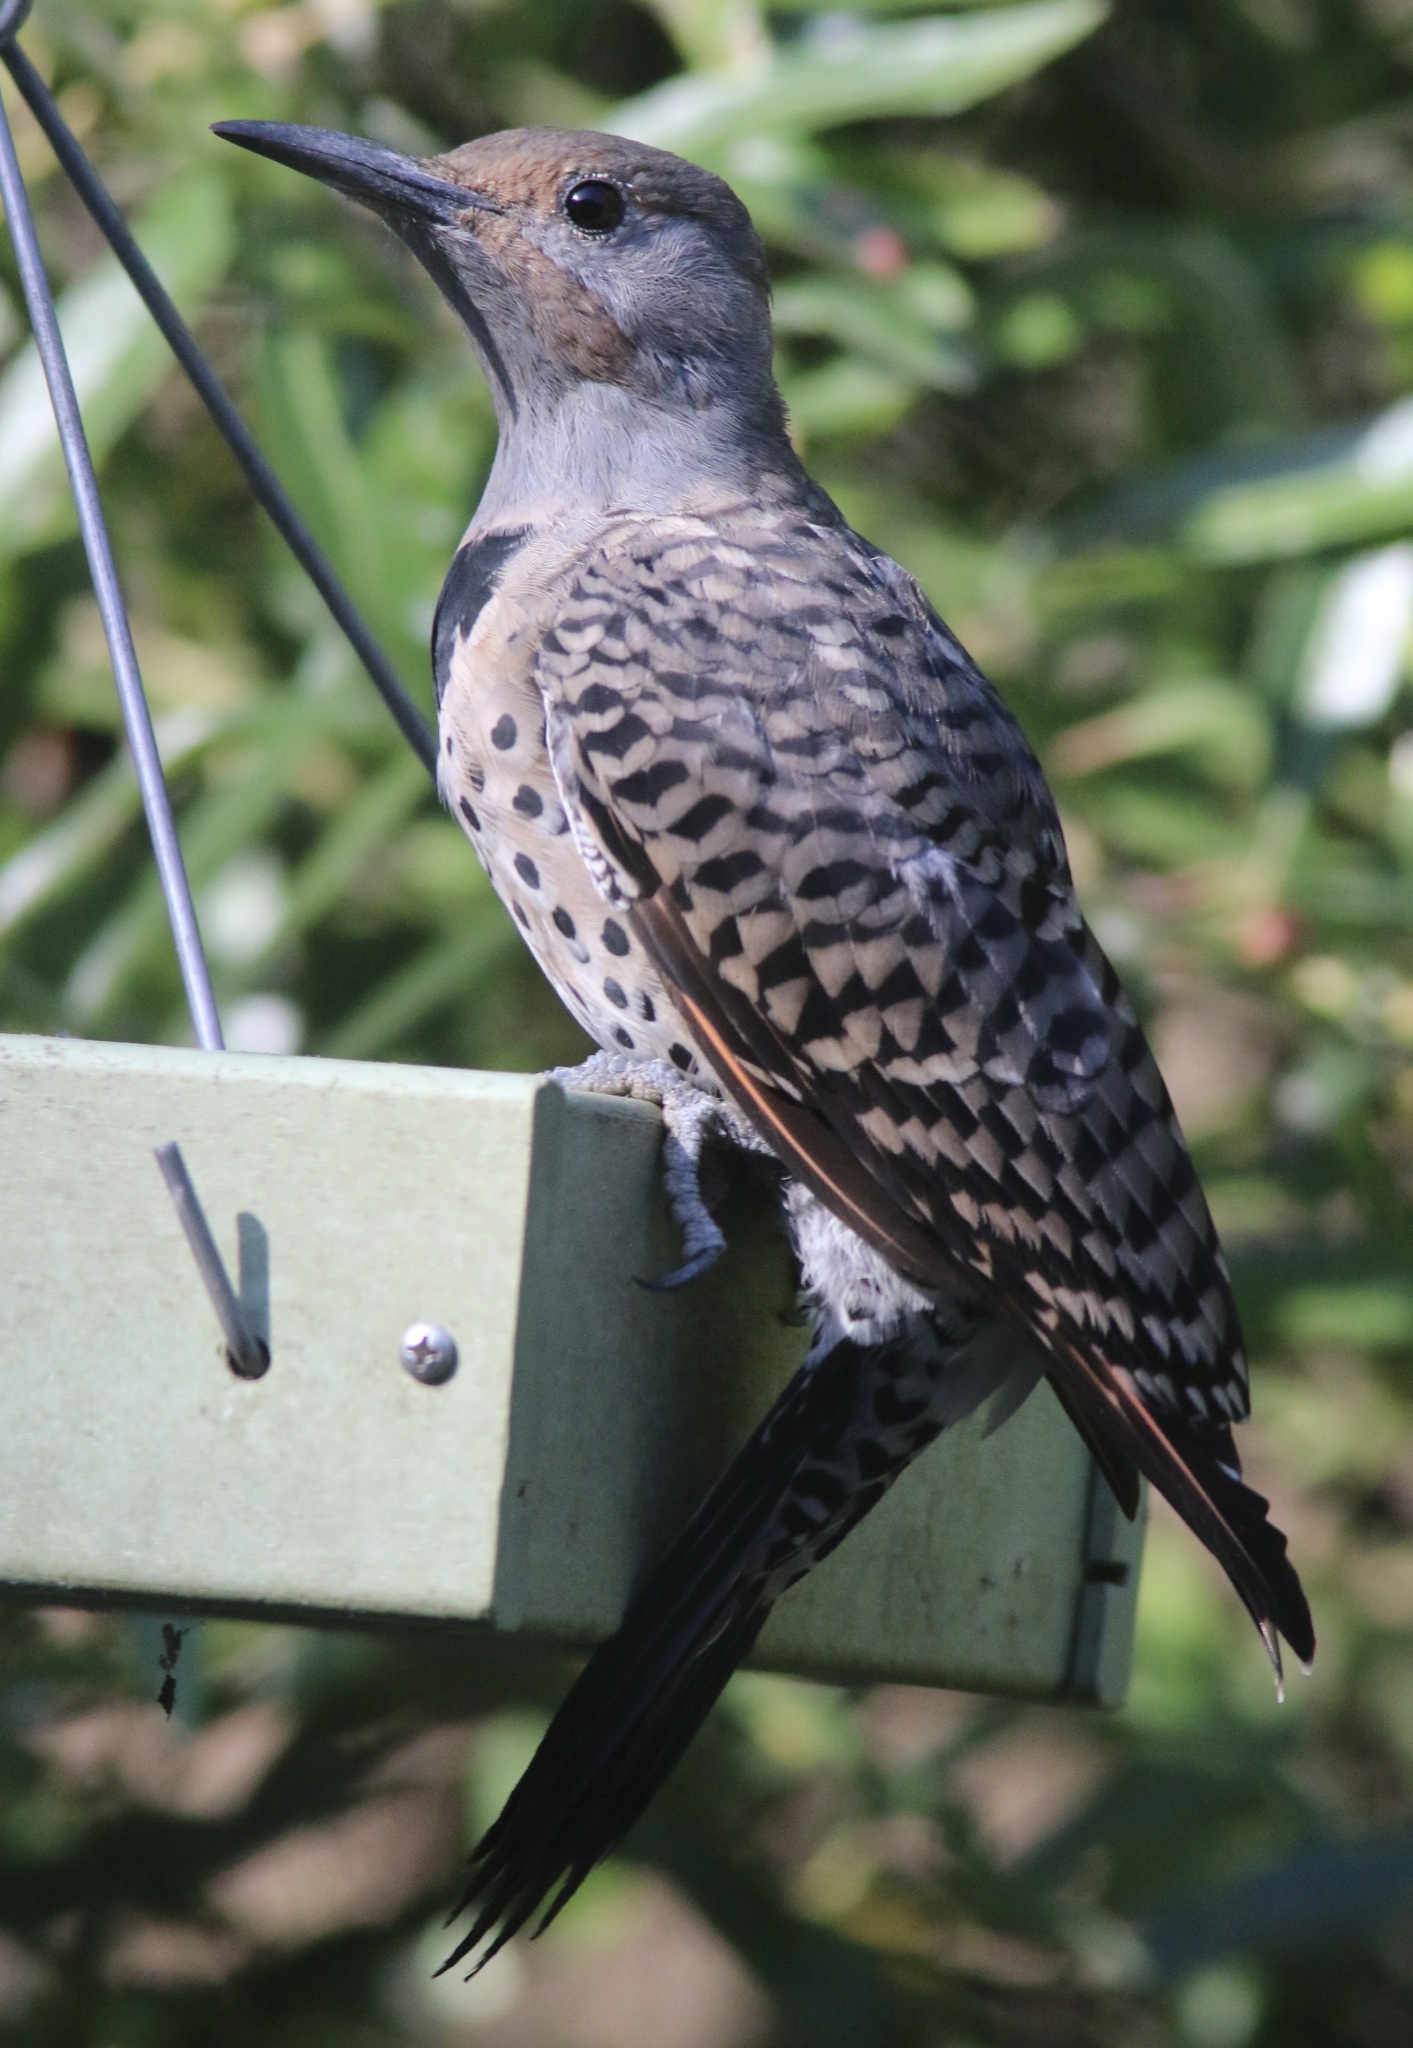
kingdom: Animalia
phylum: Chordata
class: Aves
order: Piciformes
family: Picidae
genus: Colaptes
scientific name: Colaptes auratus
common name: Northern flicker
